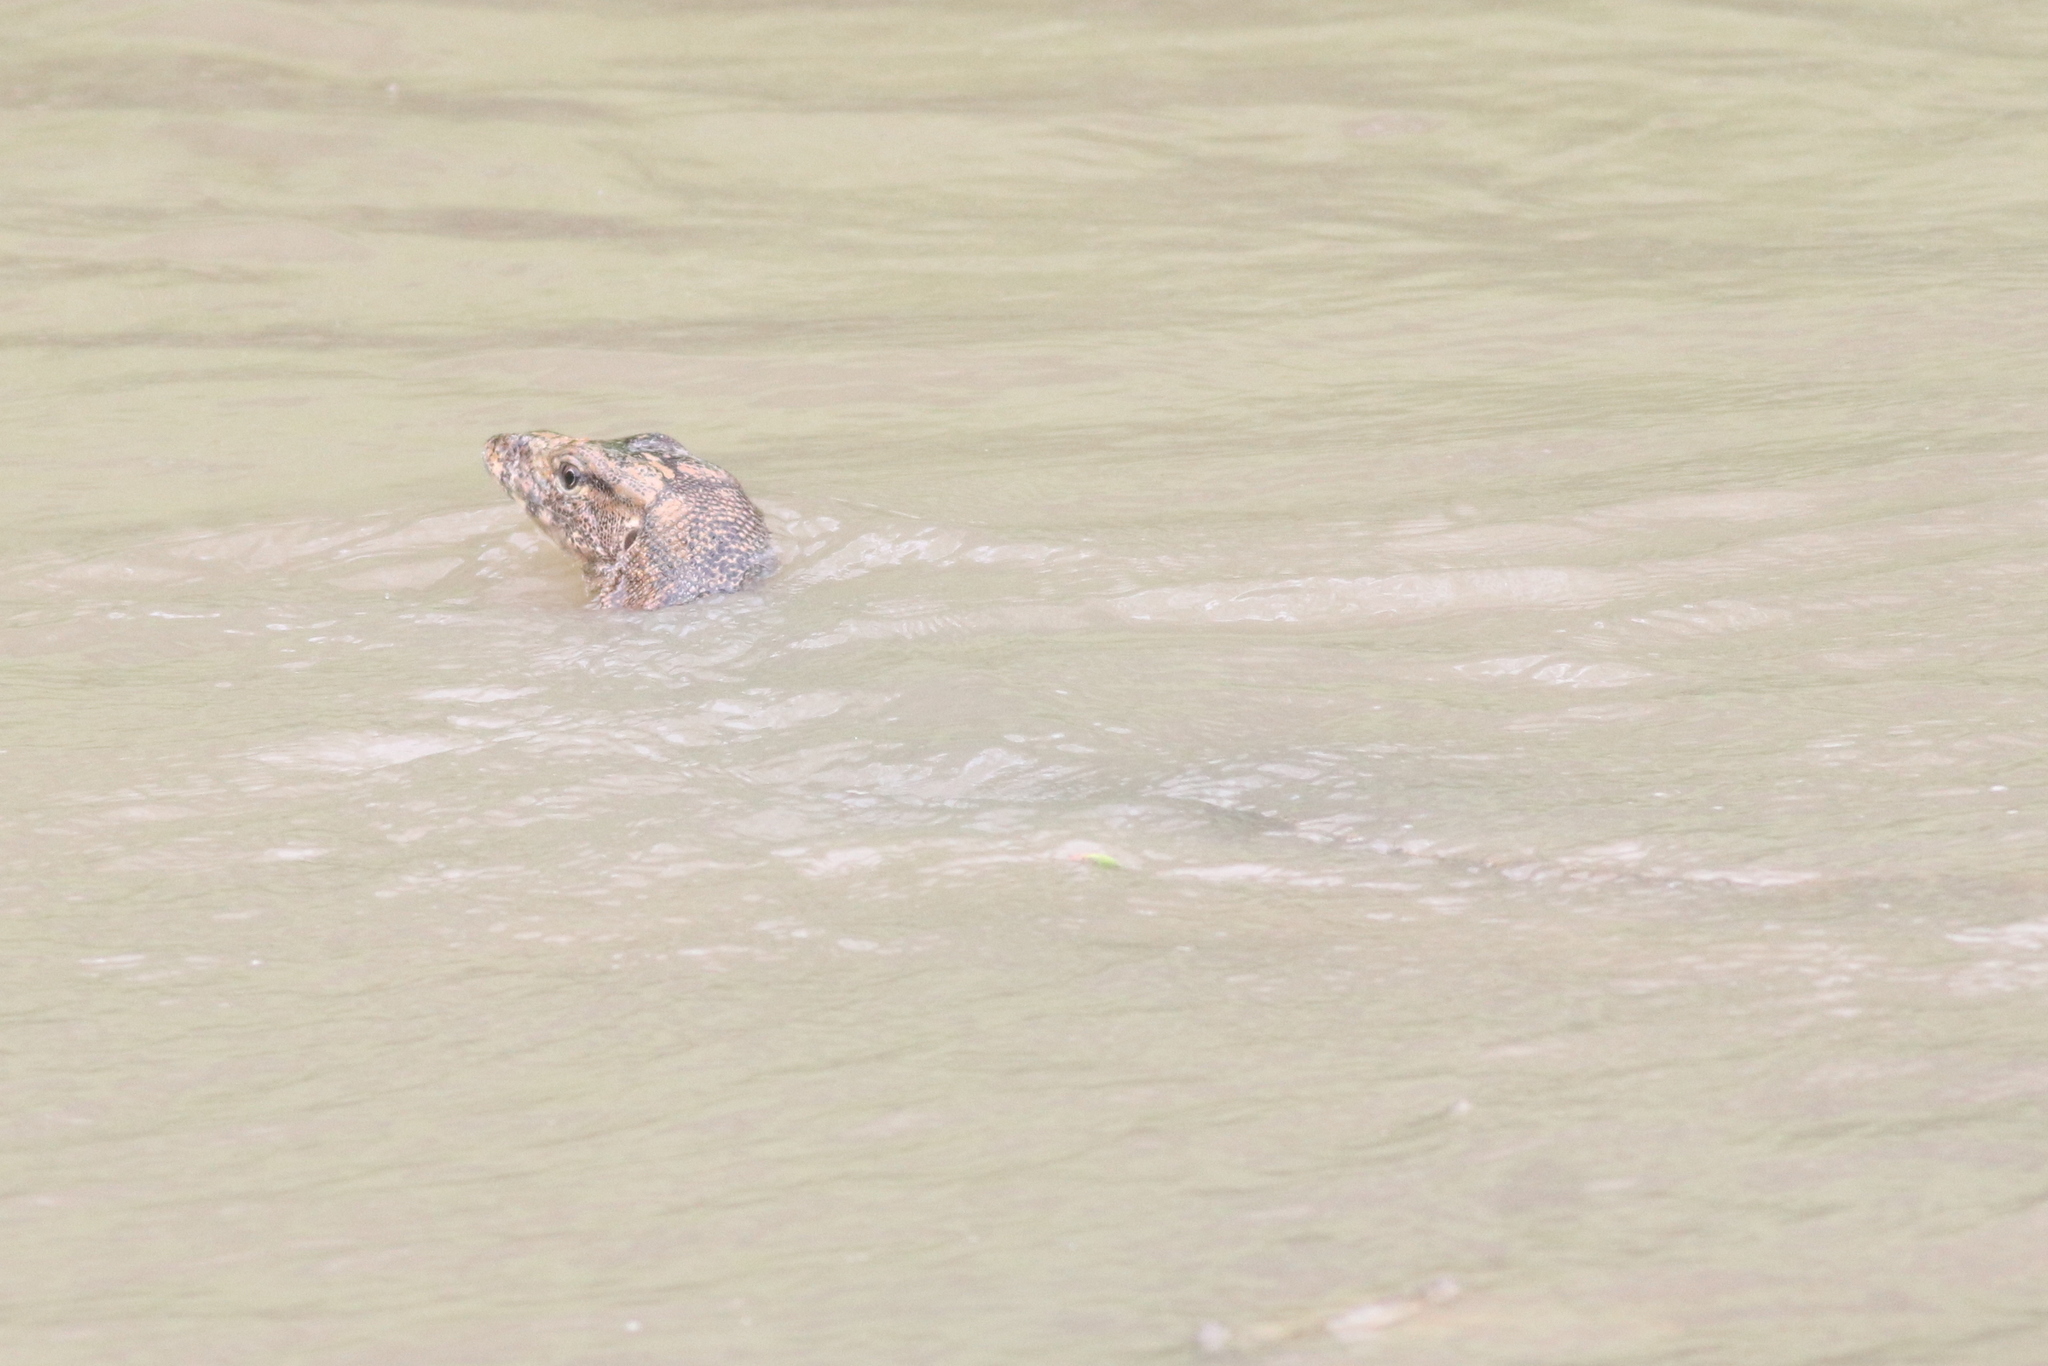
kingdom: Animalia
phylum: Chordata
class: Squamata
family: Varanidae
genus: Varanus
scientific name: Varanus salvator
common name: Common water monitor
